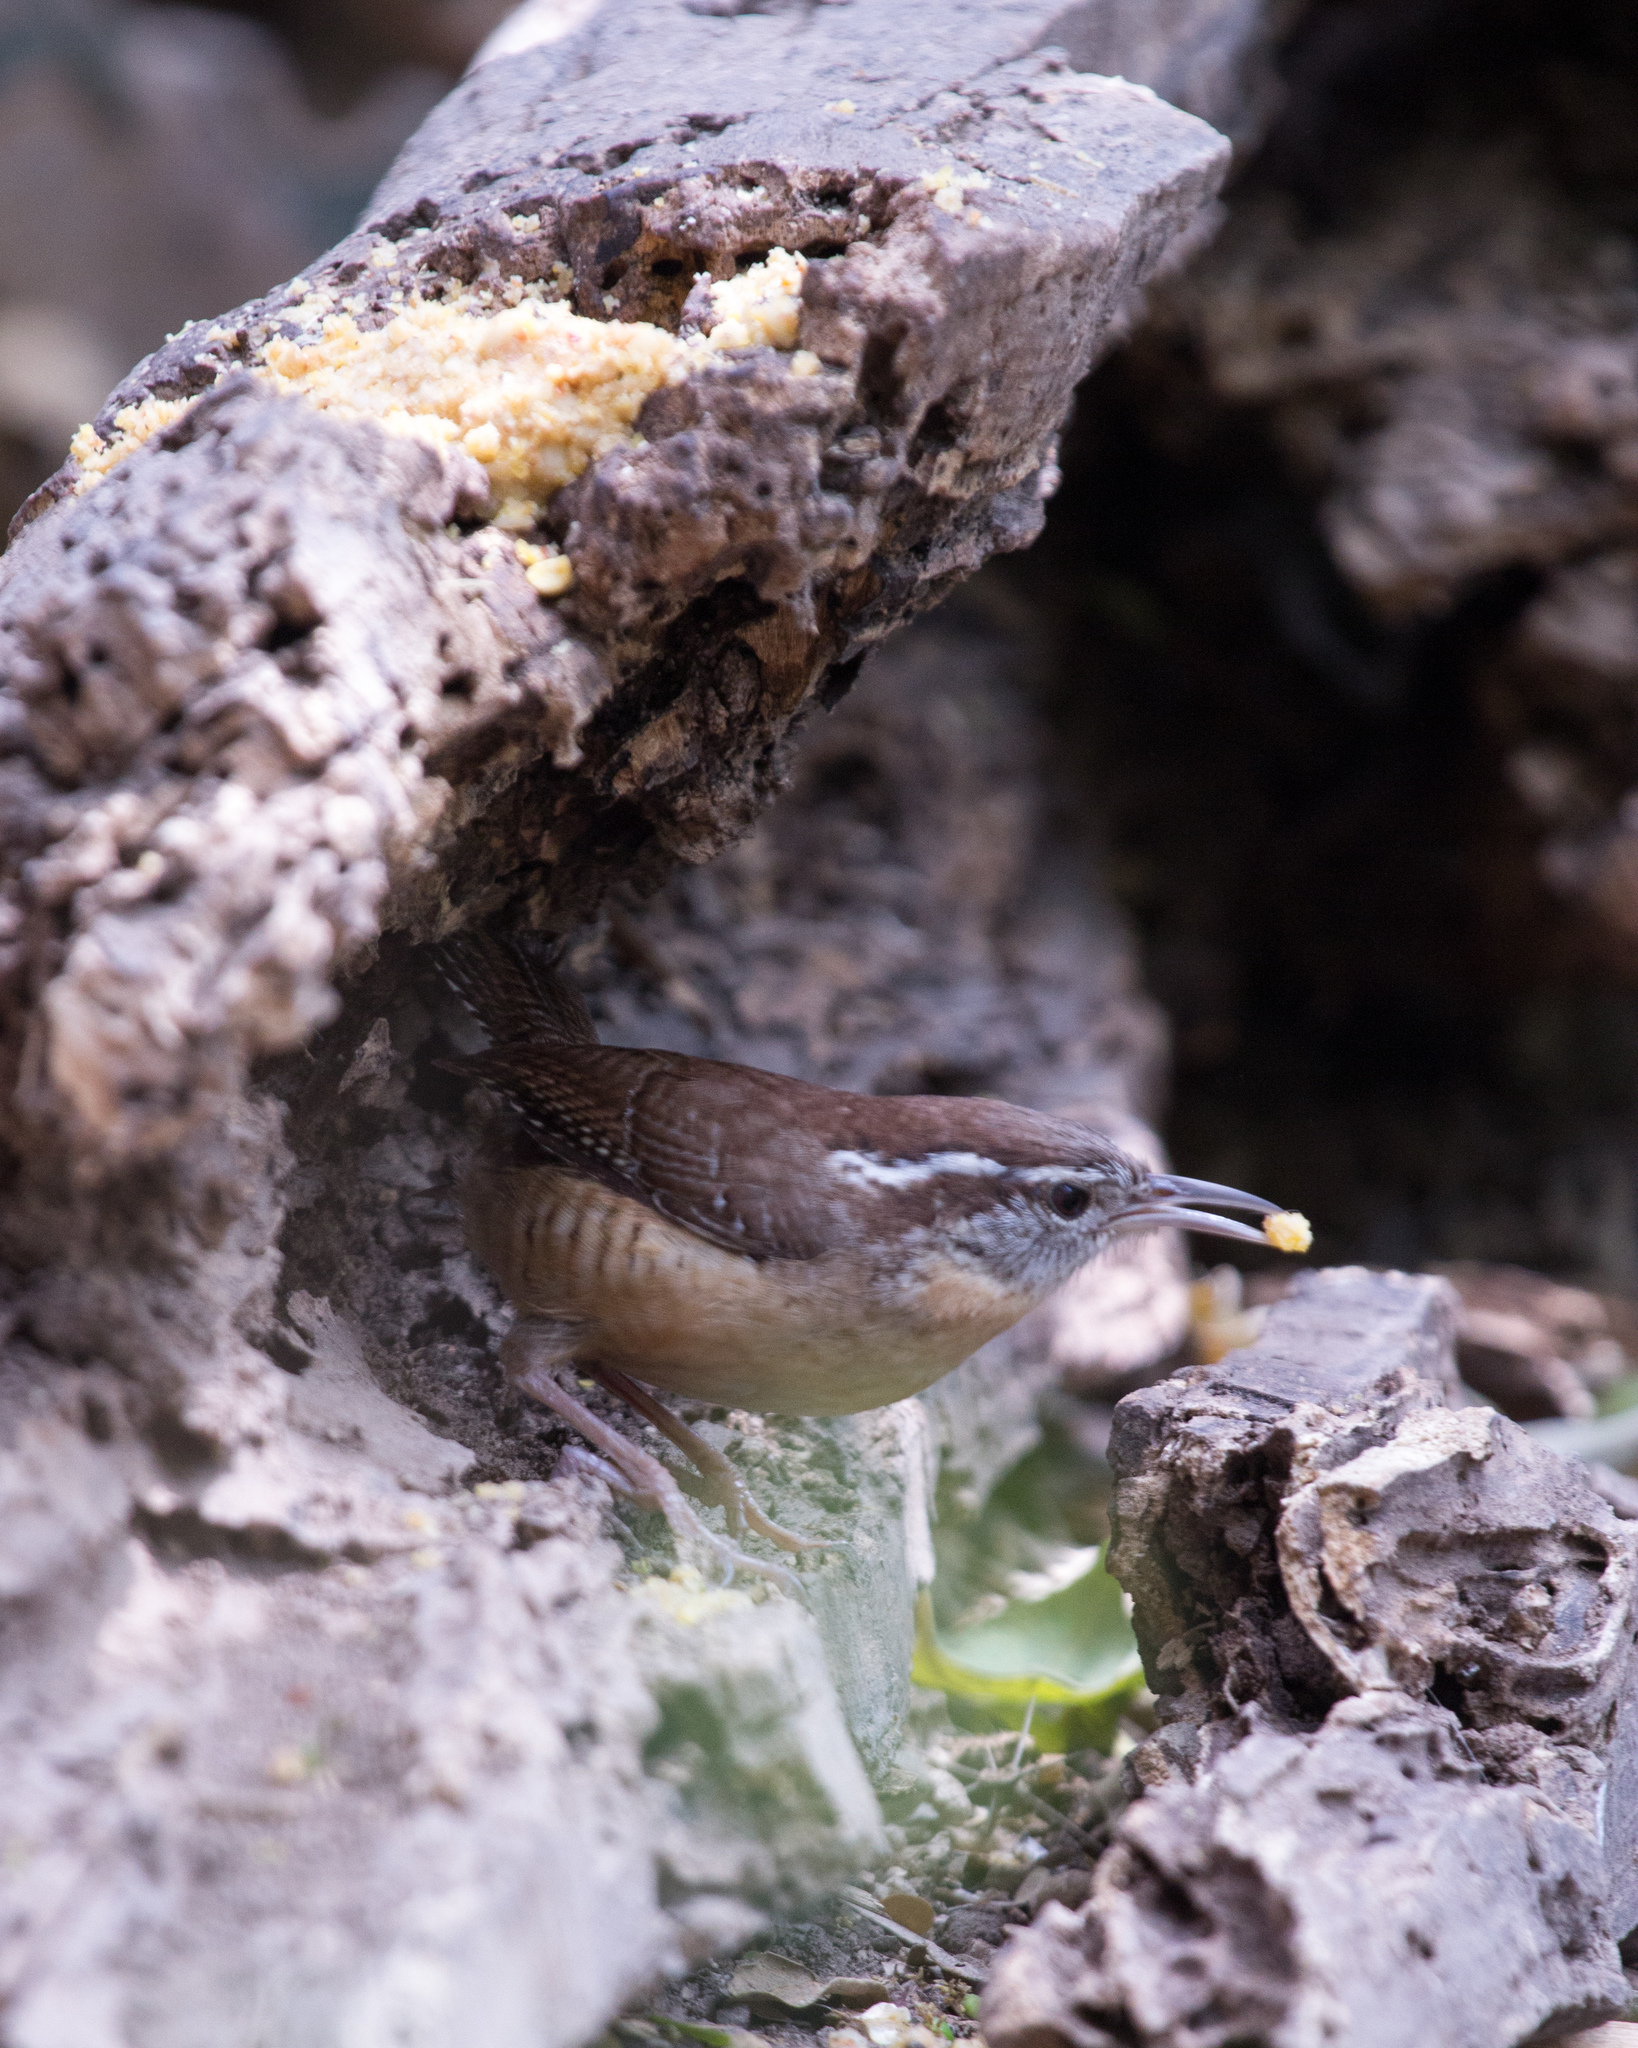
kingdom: Animalia
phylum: Chordata
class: Aves
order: Passeriformes
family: Troglodytidae
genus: Thryothorus
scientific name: Thryothorus ludovicianus
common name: Carolina wren
